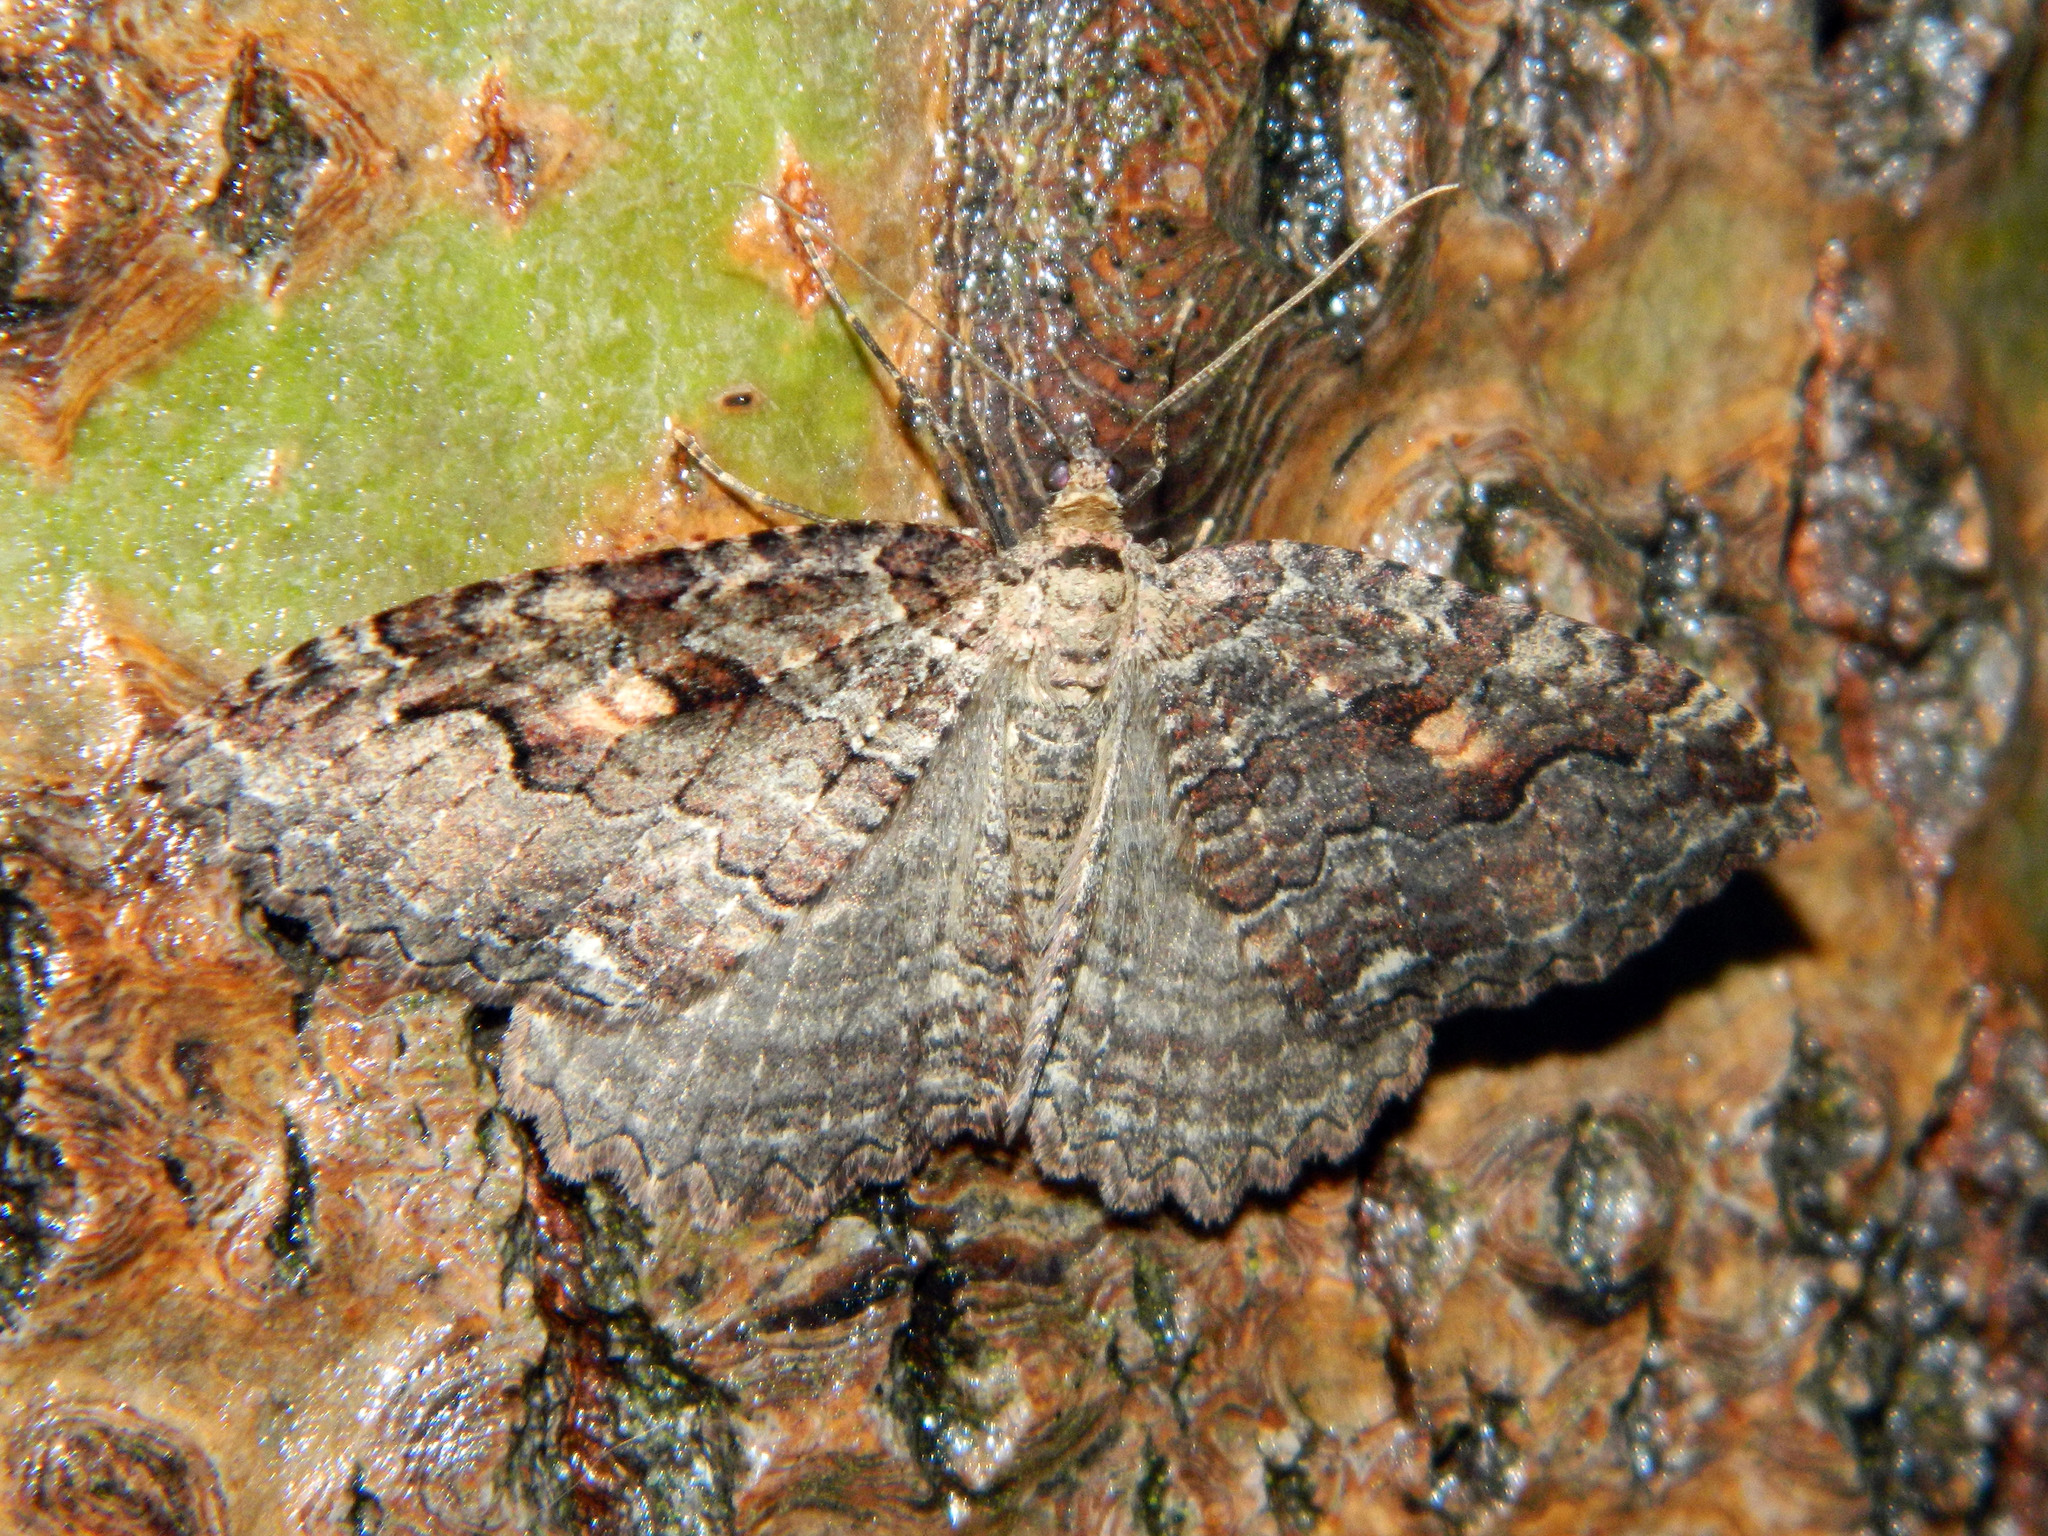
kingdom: Animalia
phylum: Arthropoda
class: Insecta
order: Lepidoptera
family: Geometridae
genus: Triphosa
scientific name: Triphosa haesitata
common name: Tissue moth
